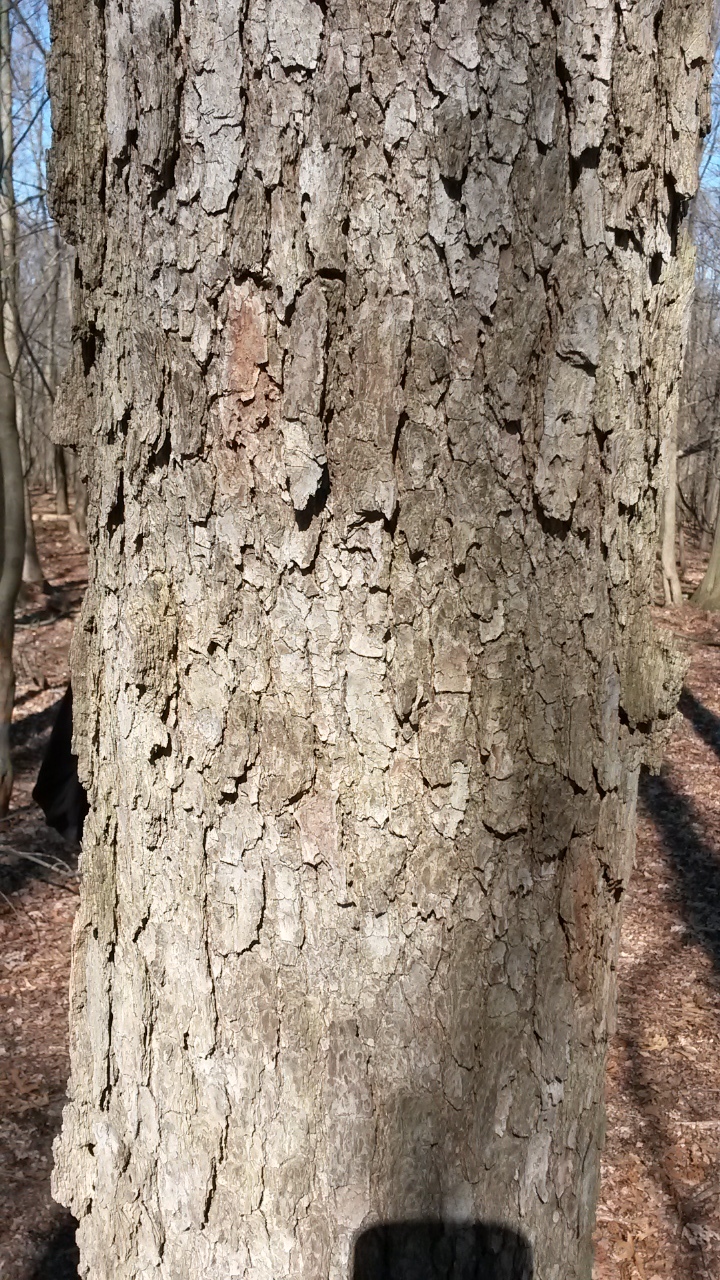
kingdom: Plantae
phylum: Tracheophyta
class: Magnoliopsida
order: Laurales
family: Lauraceae
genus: Sassafras
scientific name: Sassafras albidum
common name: Sassafras
